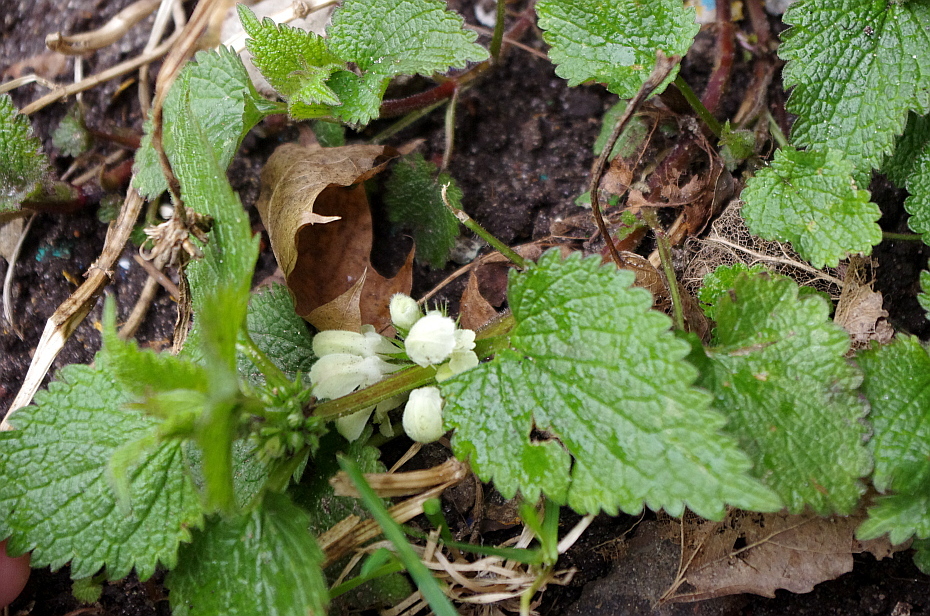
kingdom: Plantae
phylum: Tracheophyta
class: Magnoliopsida
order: Lamiales
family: Lamiaceae
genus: Lamium
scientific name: Lamium album
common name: White dead-nettle
